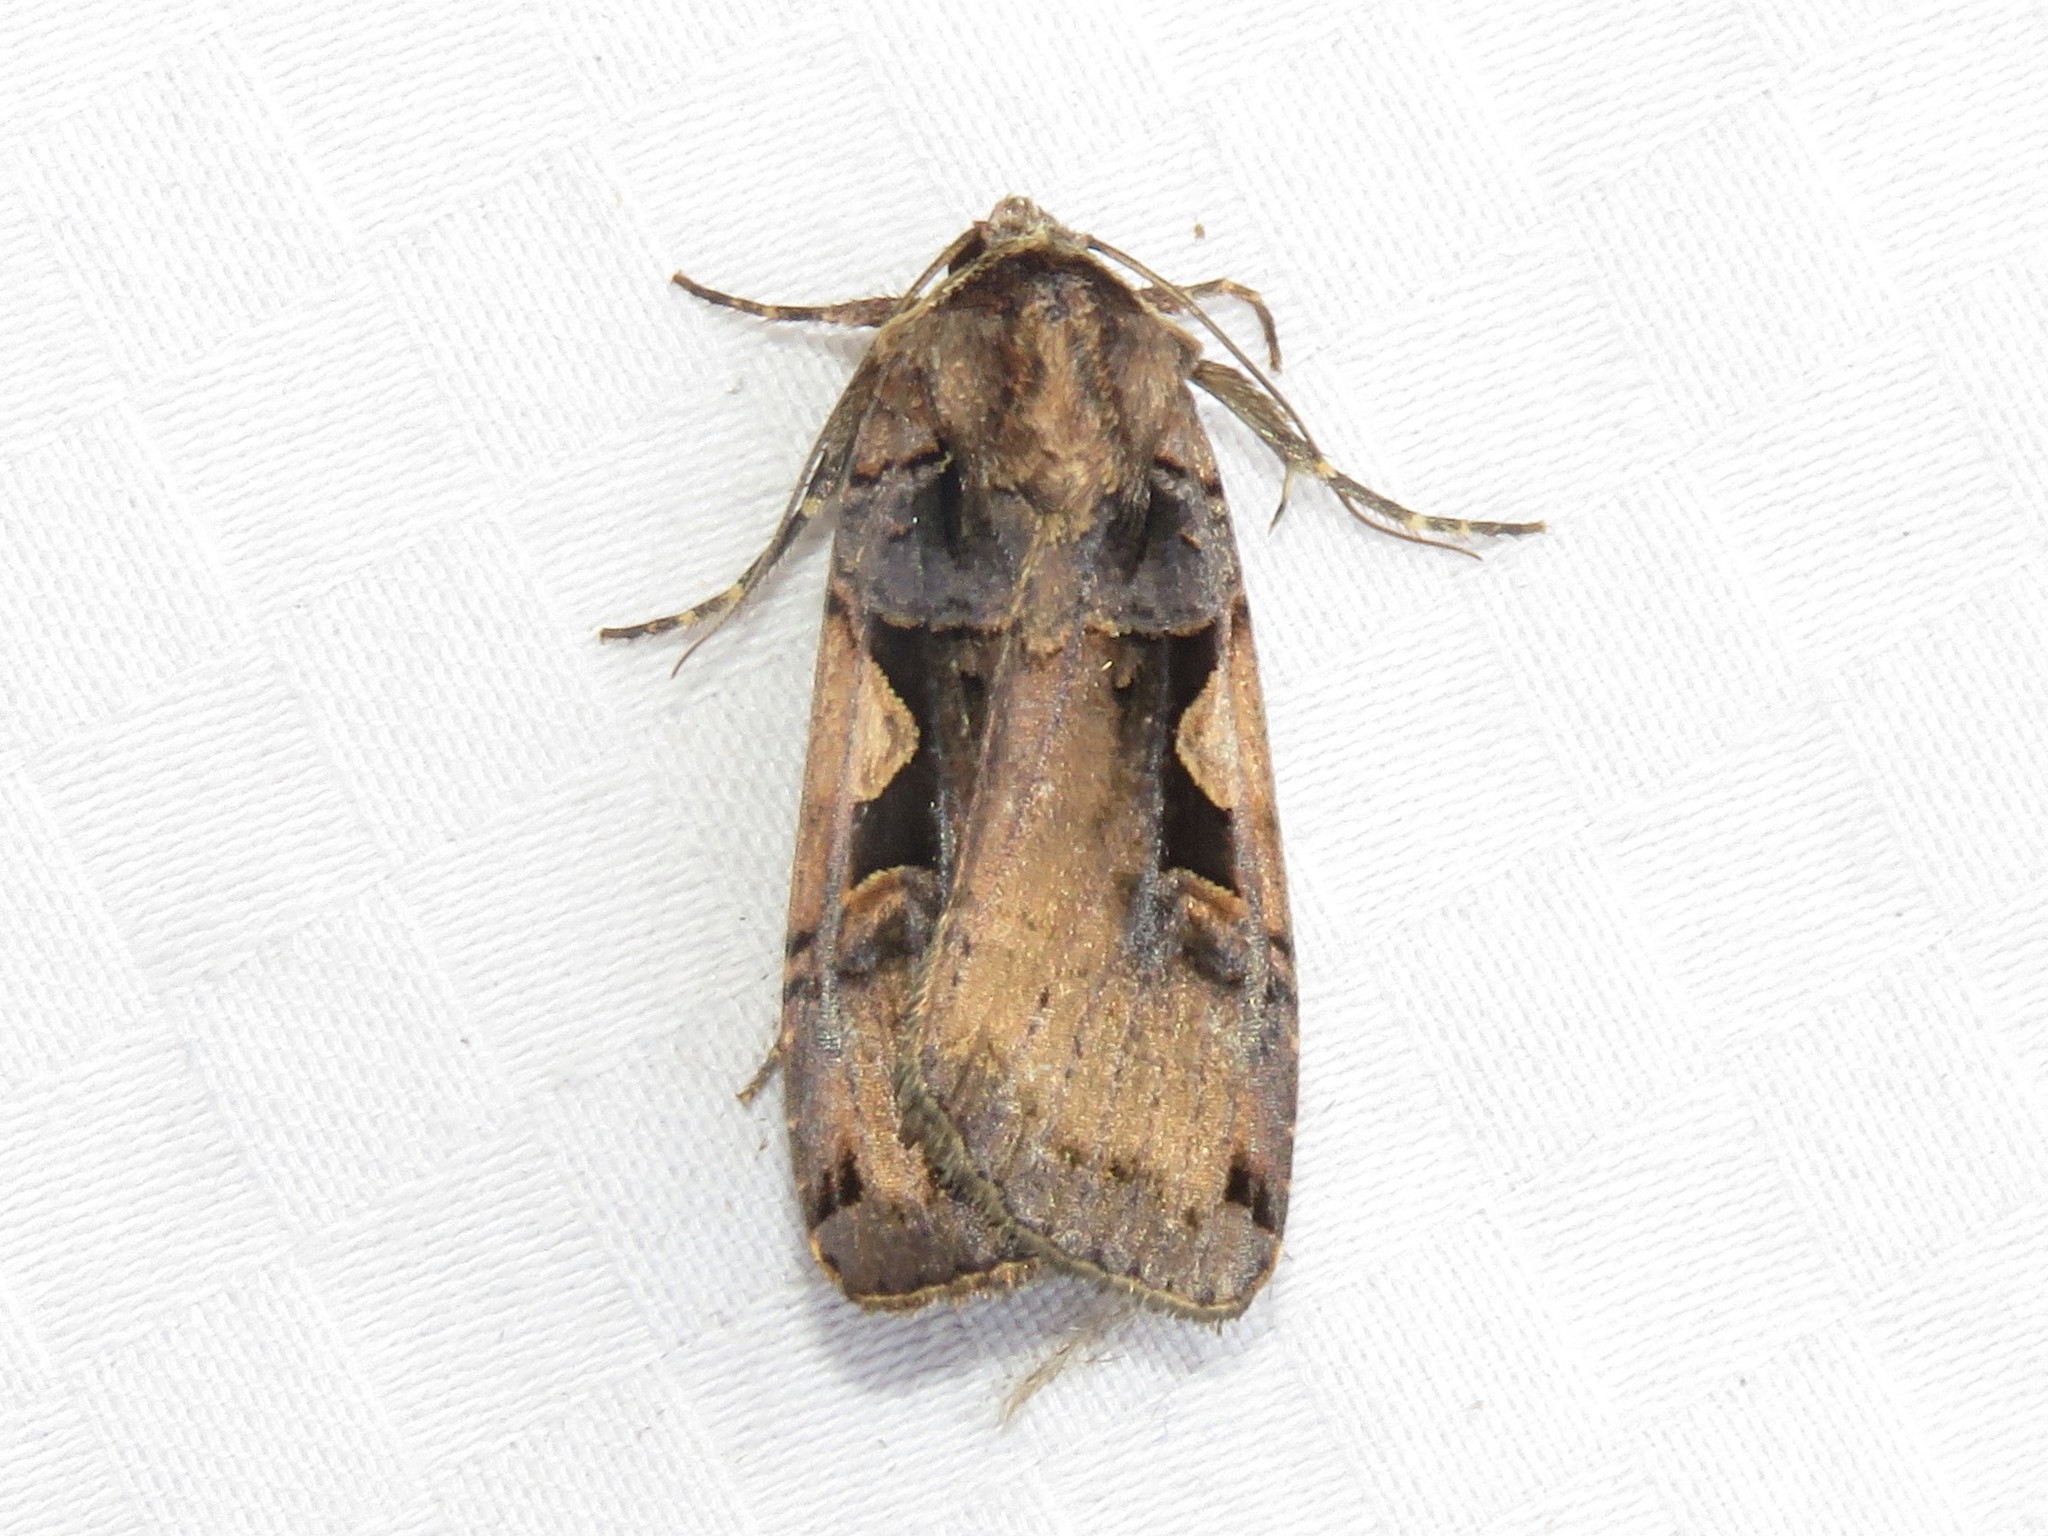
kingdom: Animalia
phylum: Arthropoda
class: Insecta
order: Lepidoptera
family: Noctuidae
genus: Xestia
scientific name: Xestia
